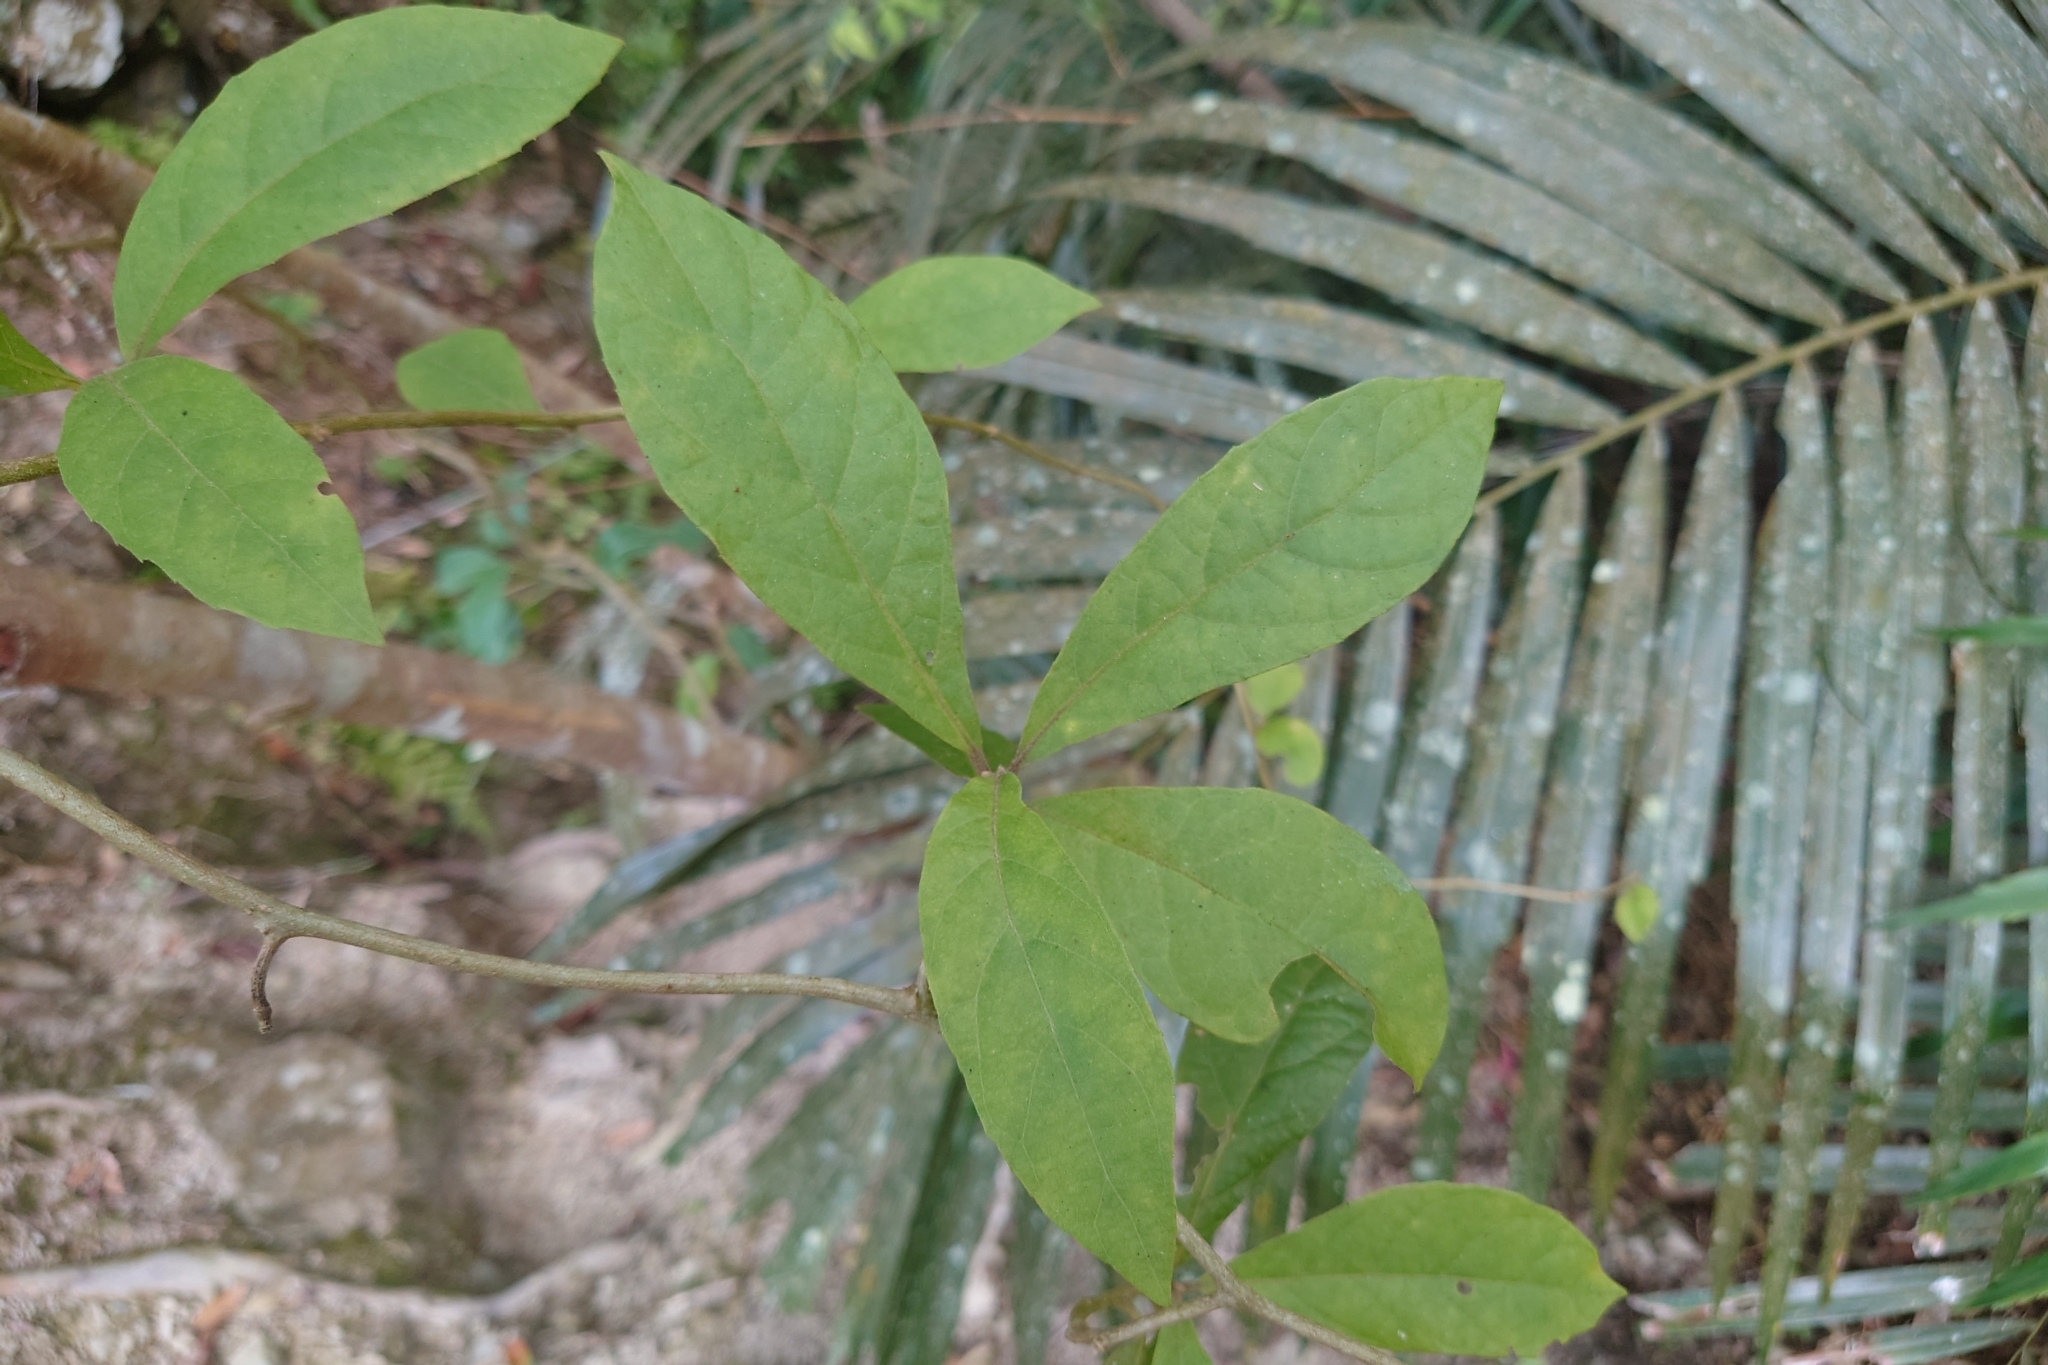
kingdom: Plantae
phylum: Tracheophyta
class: Magnoliopsida
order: Asterales
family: Asteraceae
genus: Decaneuropsis
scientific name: Decaneuropsis gratiosa
